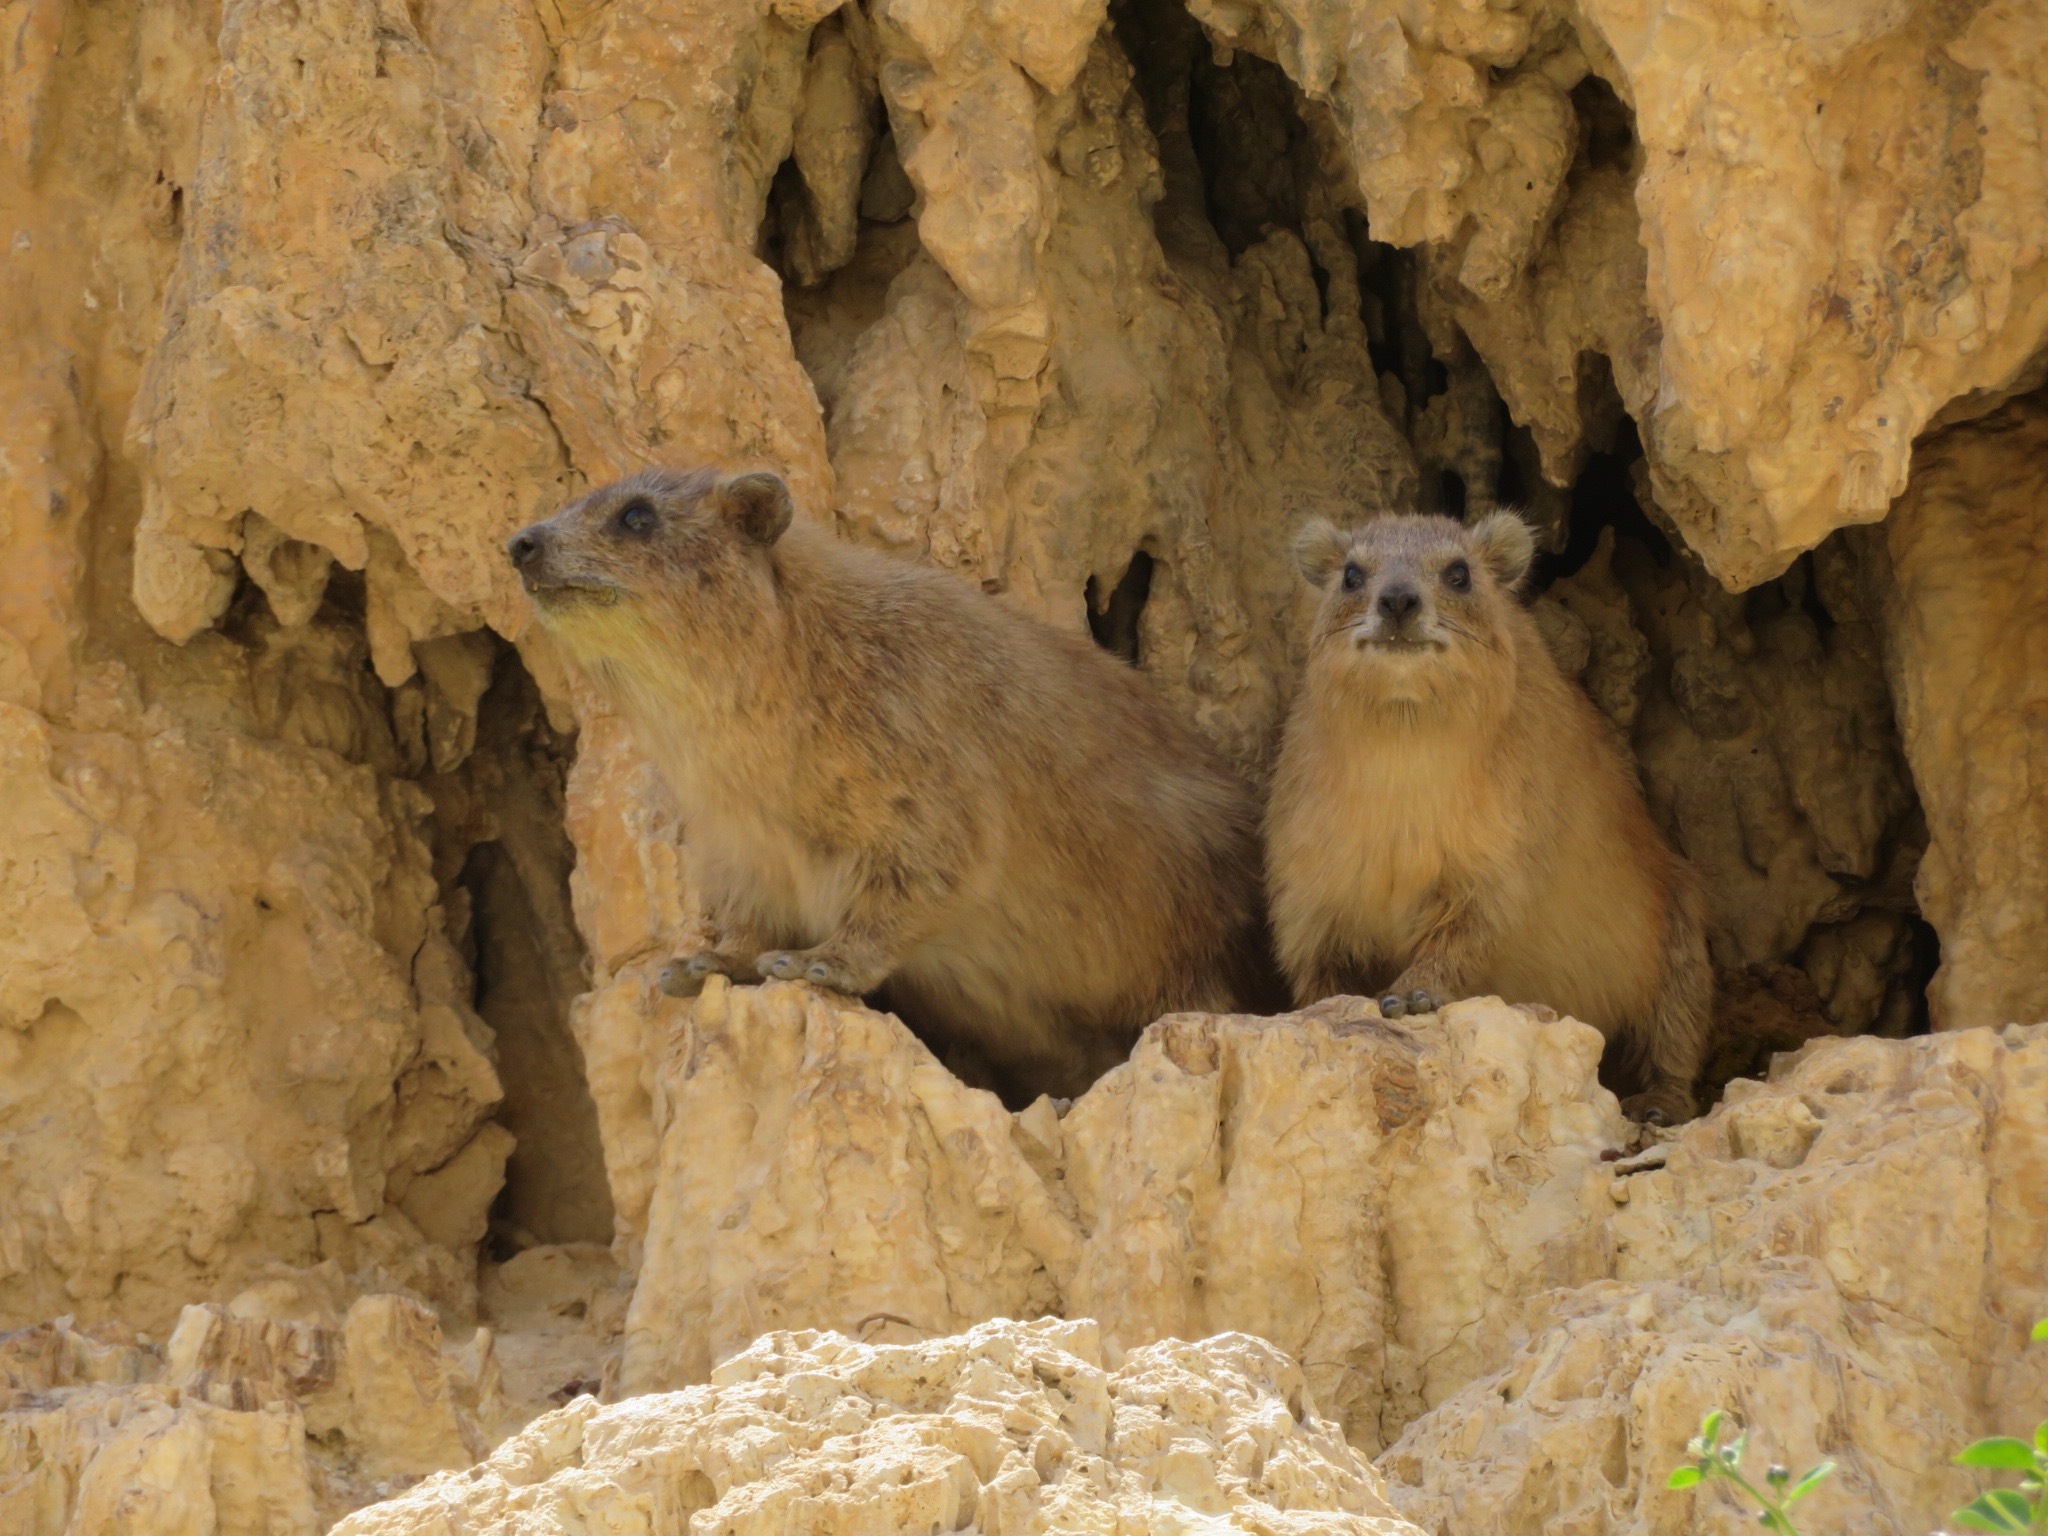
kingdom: Animalia
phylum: Chordata
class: Mammalia
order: Hyracoidea
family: Procaviidae
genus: Procavia
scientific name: Procavia capensis
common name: Rock hyrax
